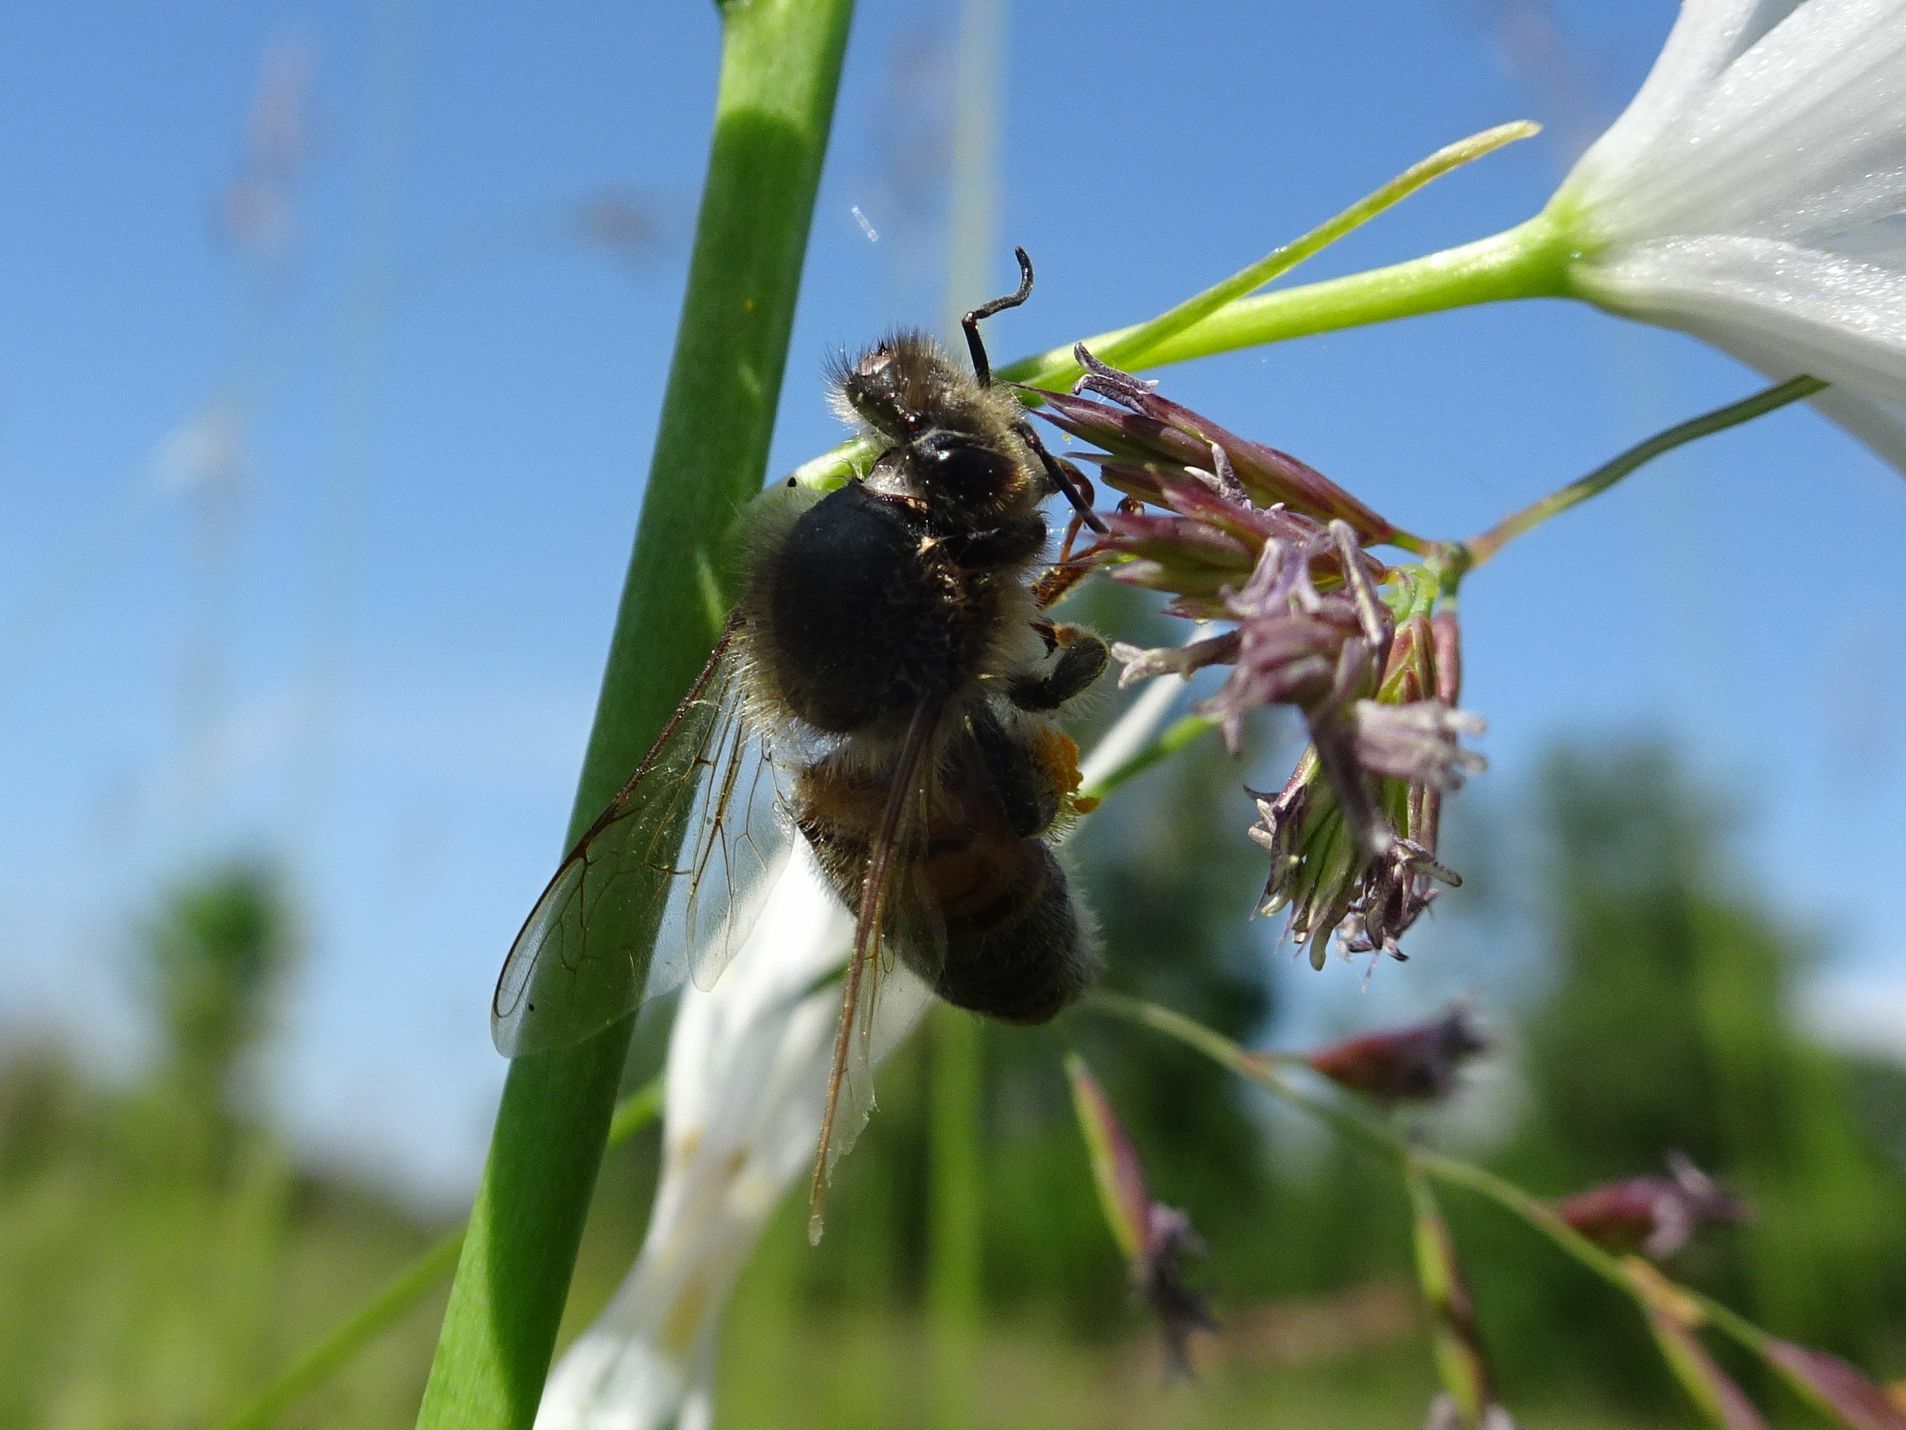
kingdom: Animalia
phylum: Arthropoda
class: Insecta
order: Hymenoptera
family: Apidae
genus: Apis
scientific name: Apis mellifera
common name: Honey bee
